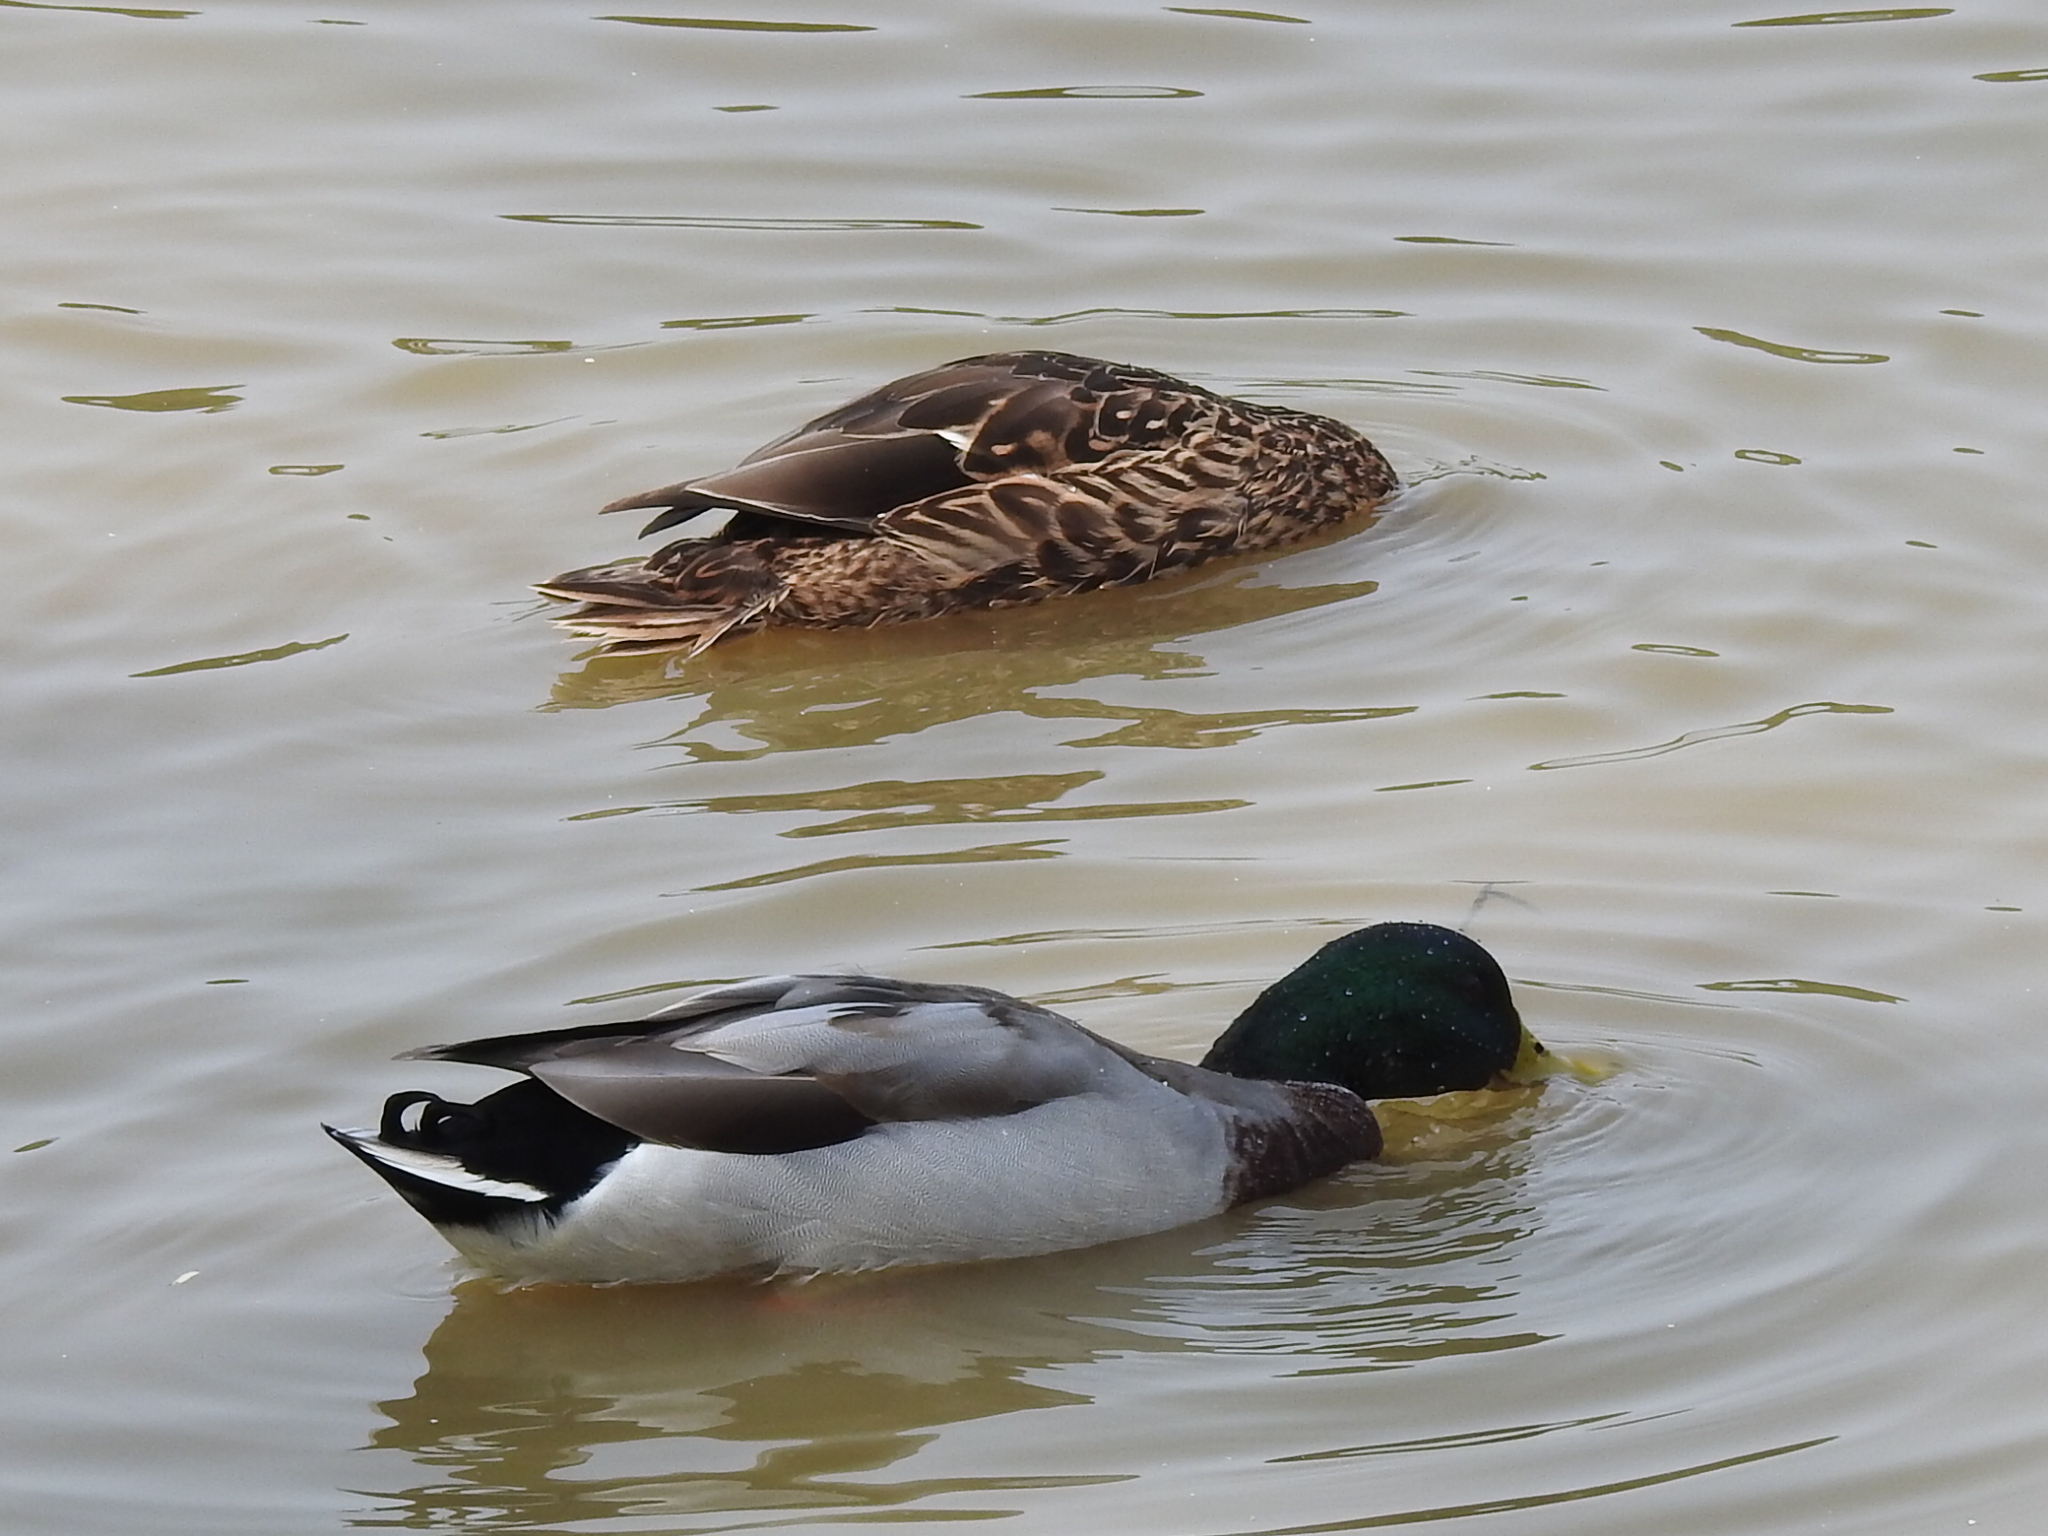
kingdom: Animalia
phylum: Chordata
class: Aves
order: Anseriformes
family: Anatidae
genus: Anas
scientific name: Anas platyrhynchos
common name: Mallard
